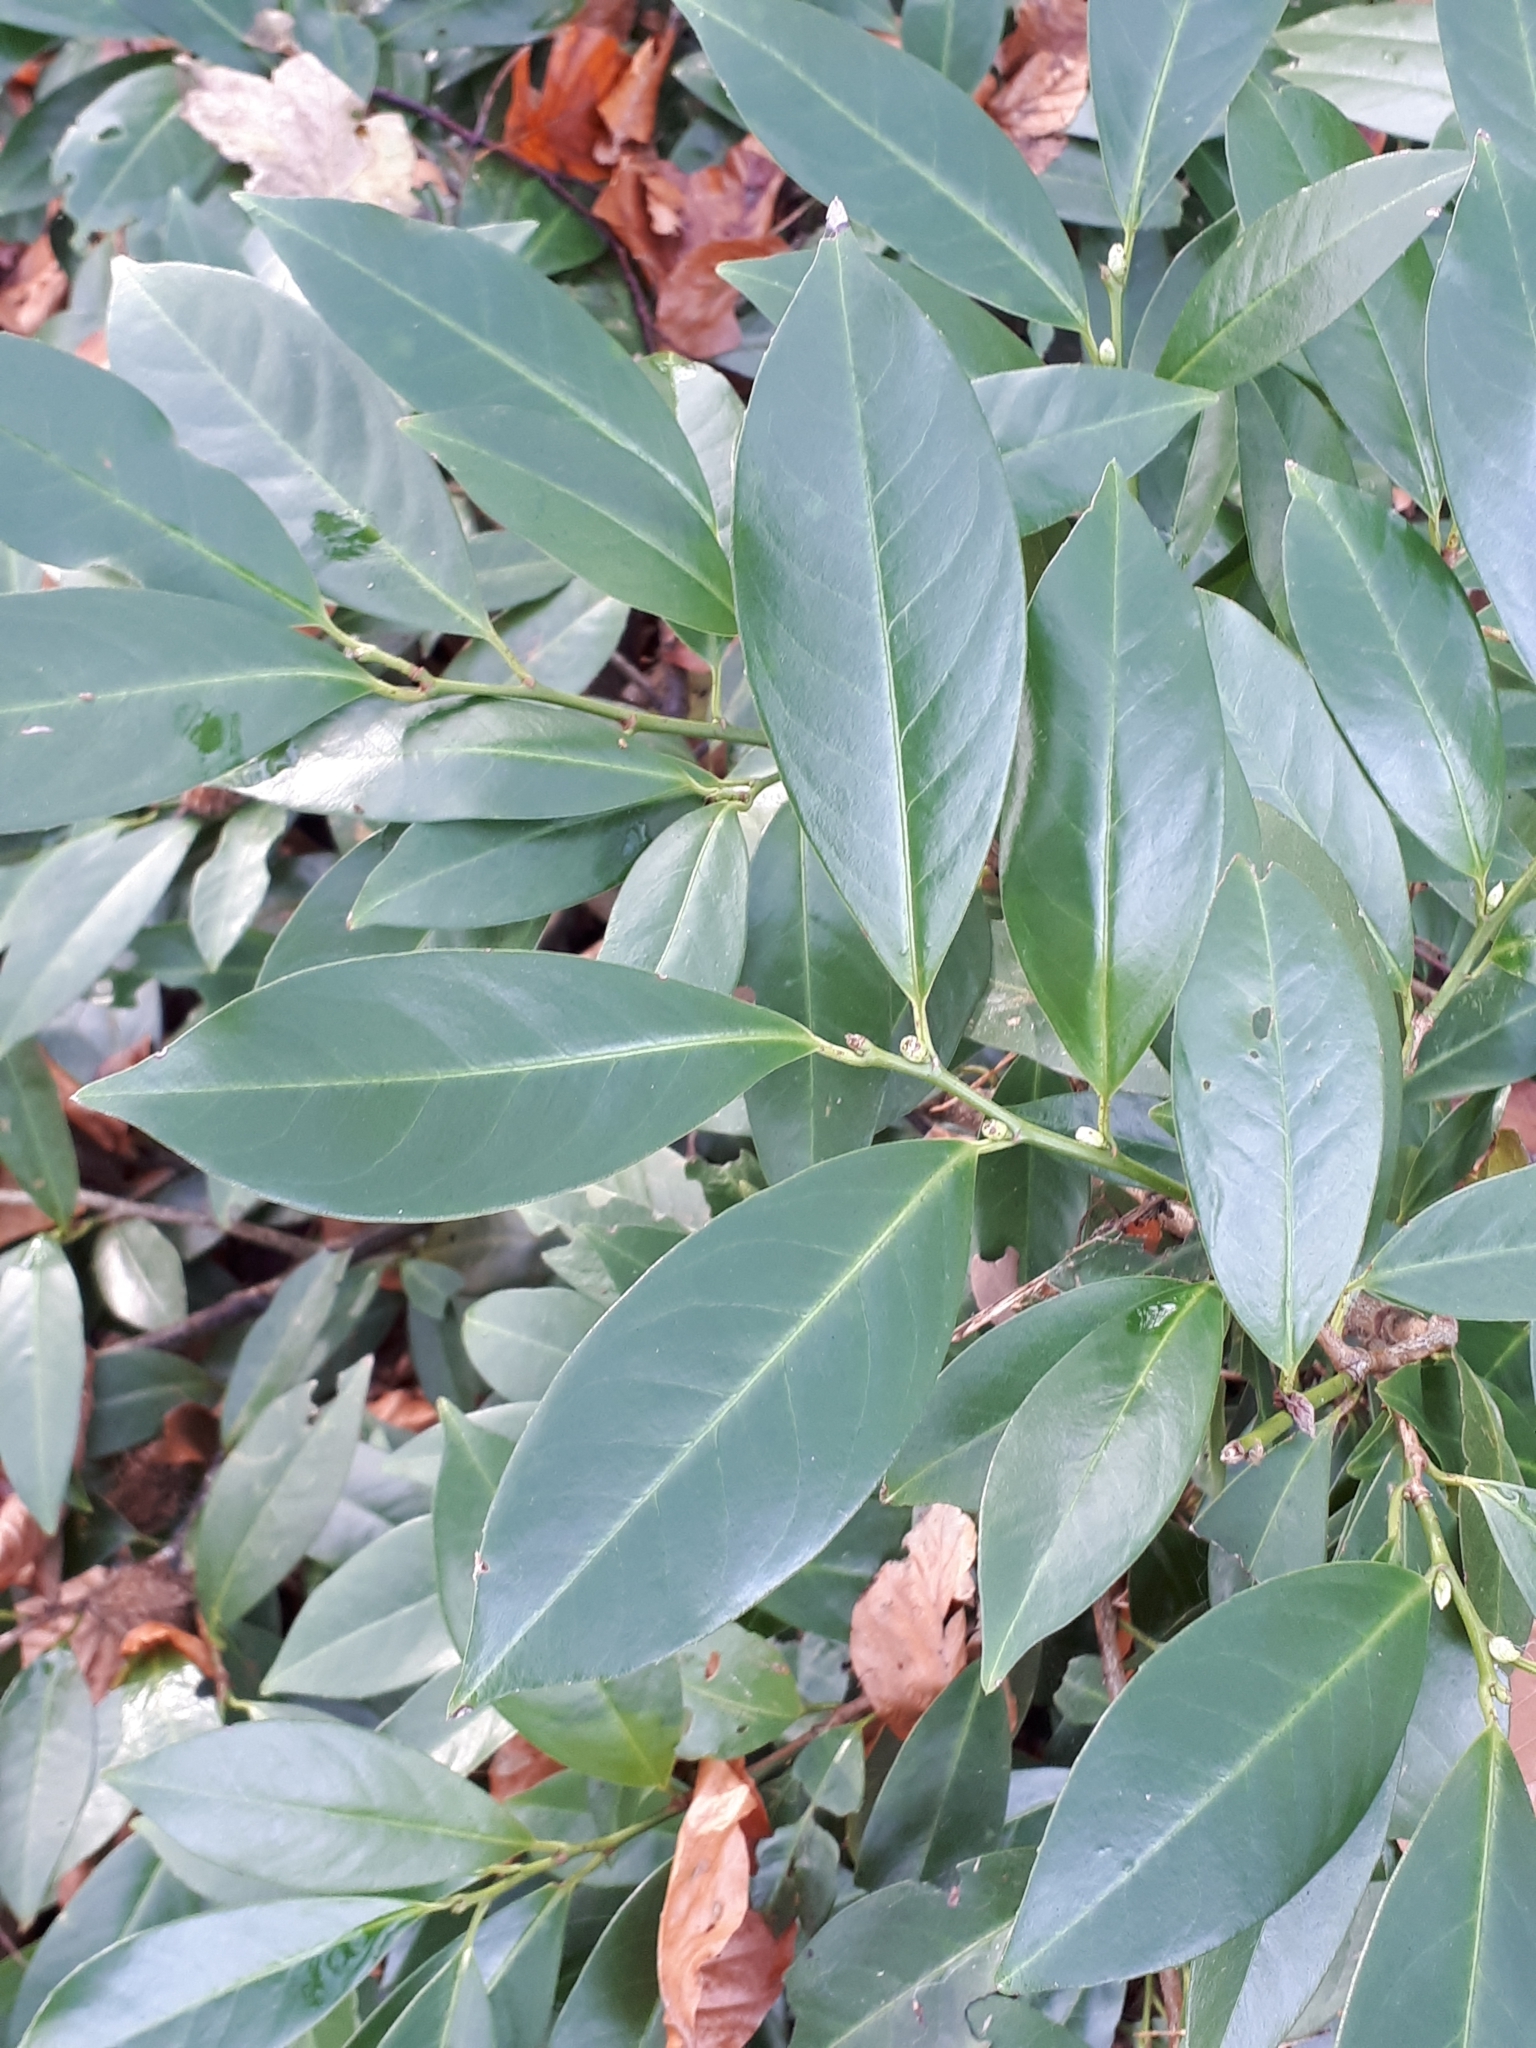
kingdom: Plantae
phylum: Tracheophyta
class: Magnoliopsida
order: Rosales
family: Rosaceae
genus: Prunus
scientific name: Prunus laurocerasus
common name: Cherry laurel
